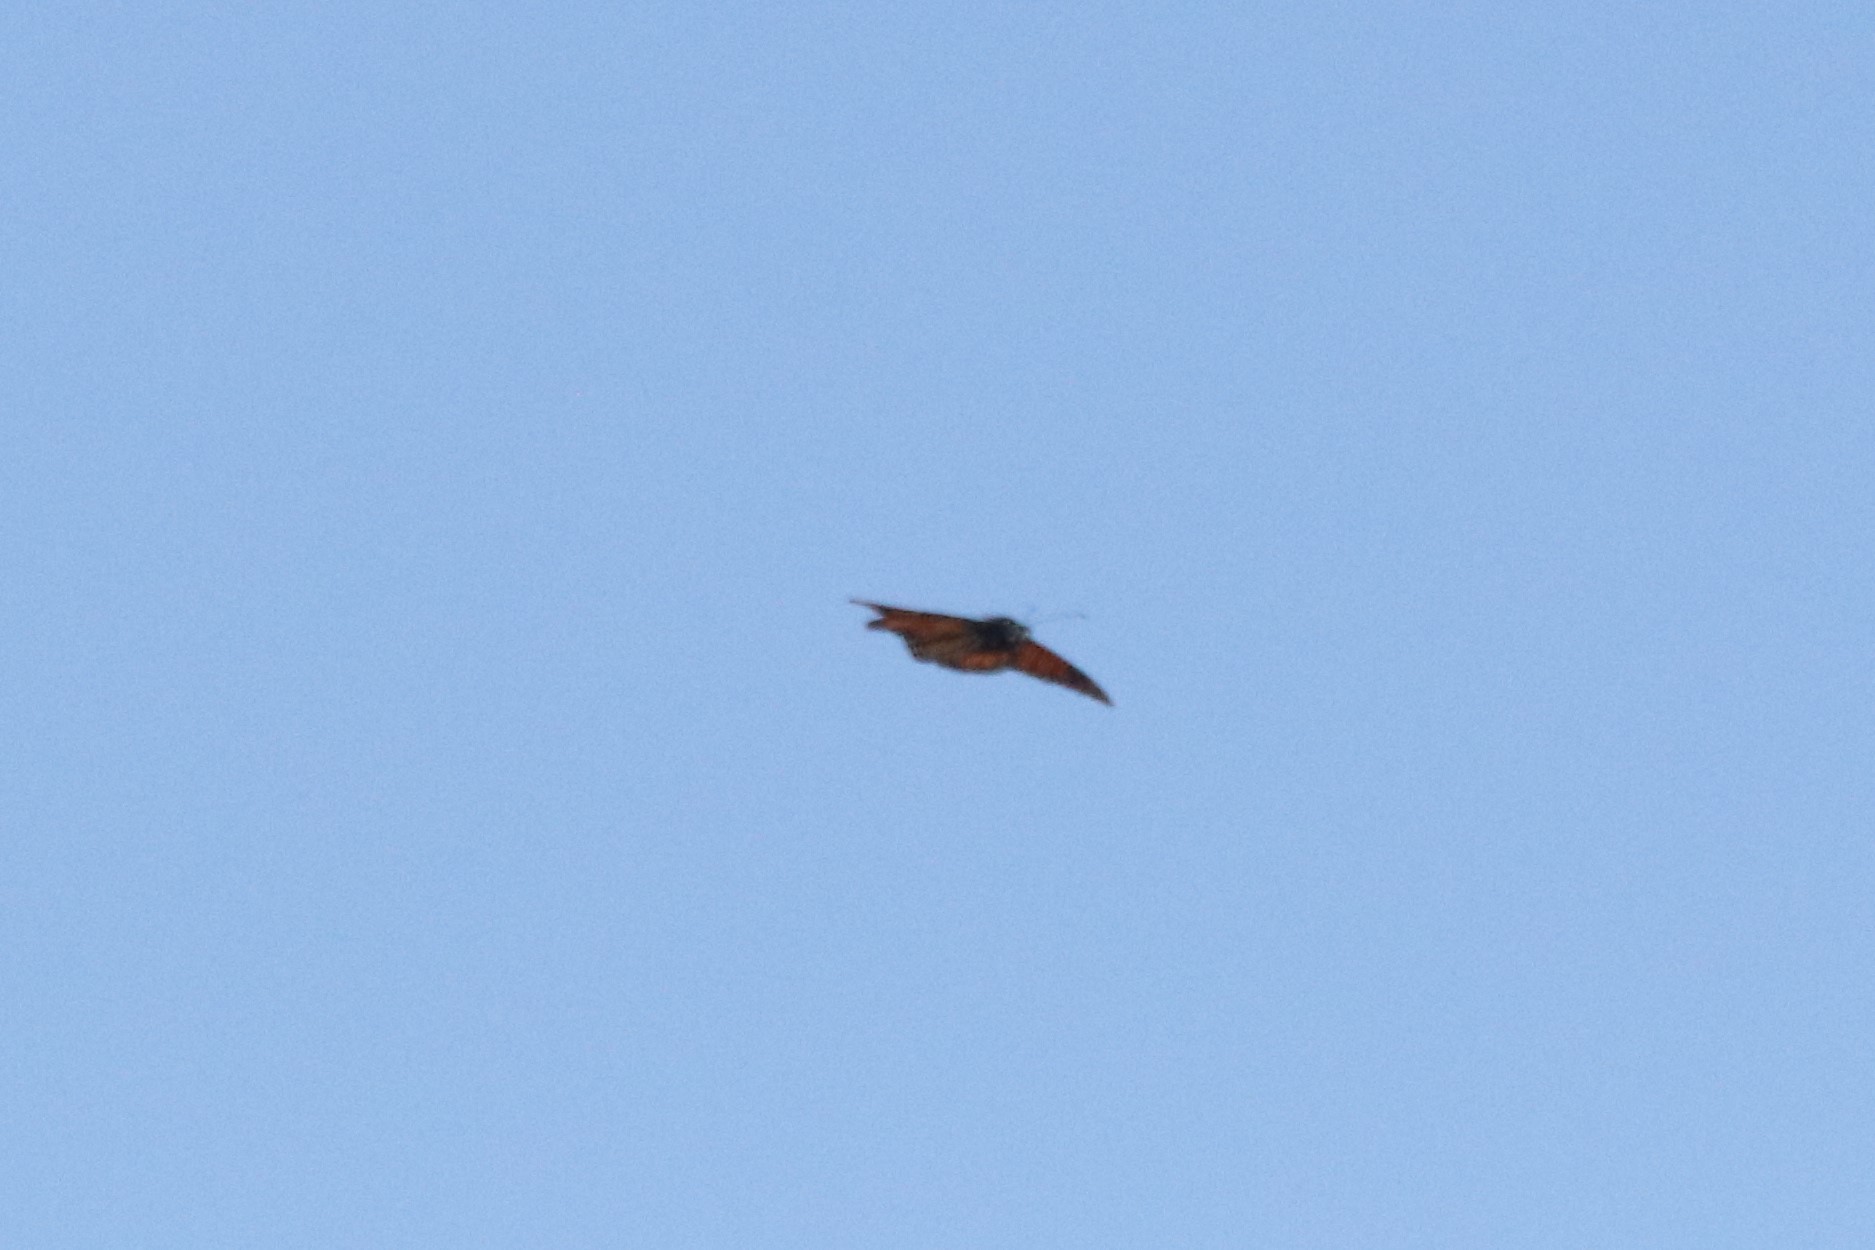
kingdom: Animalia
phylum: Arthropoda
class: Insecta
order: Lepidoptera
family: Nymphalidae
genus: Danaus
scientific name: Danaus plexippus
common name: Monarch
